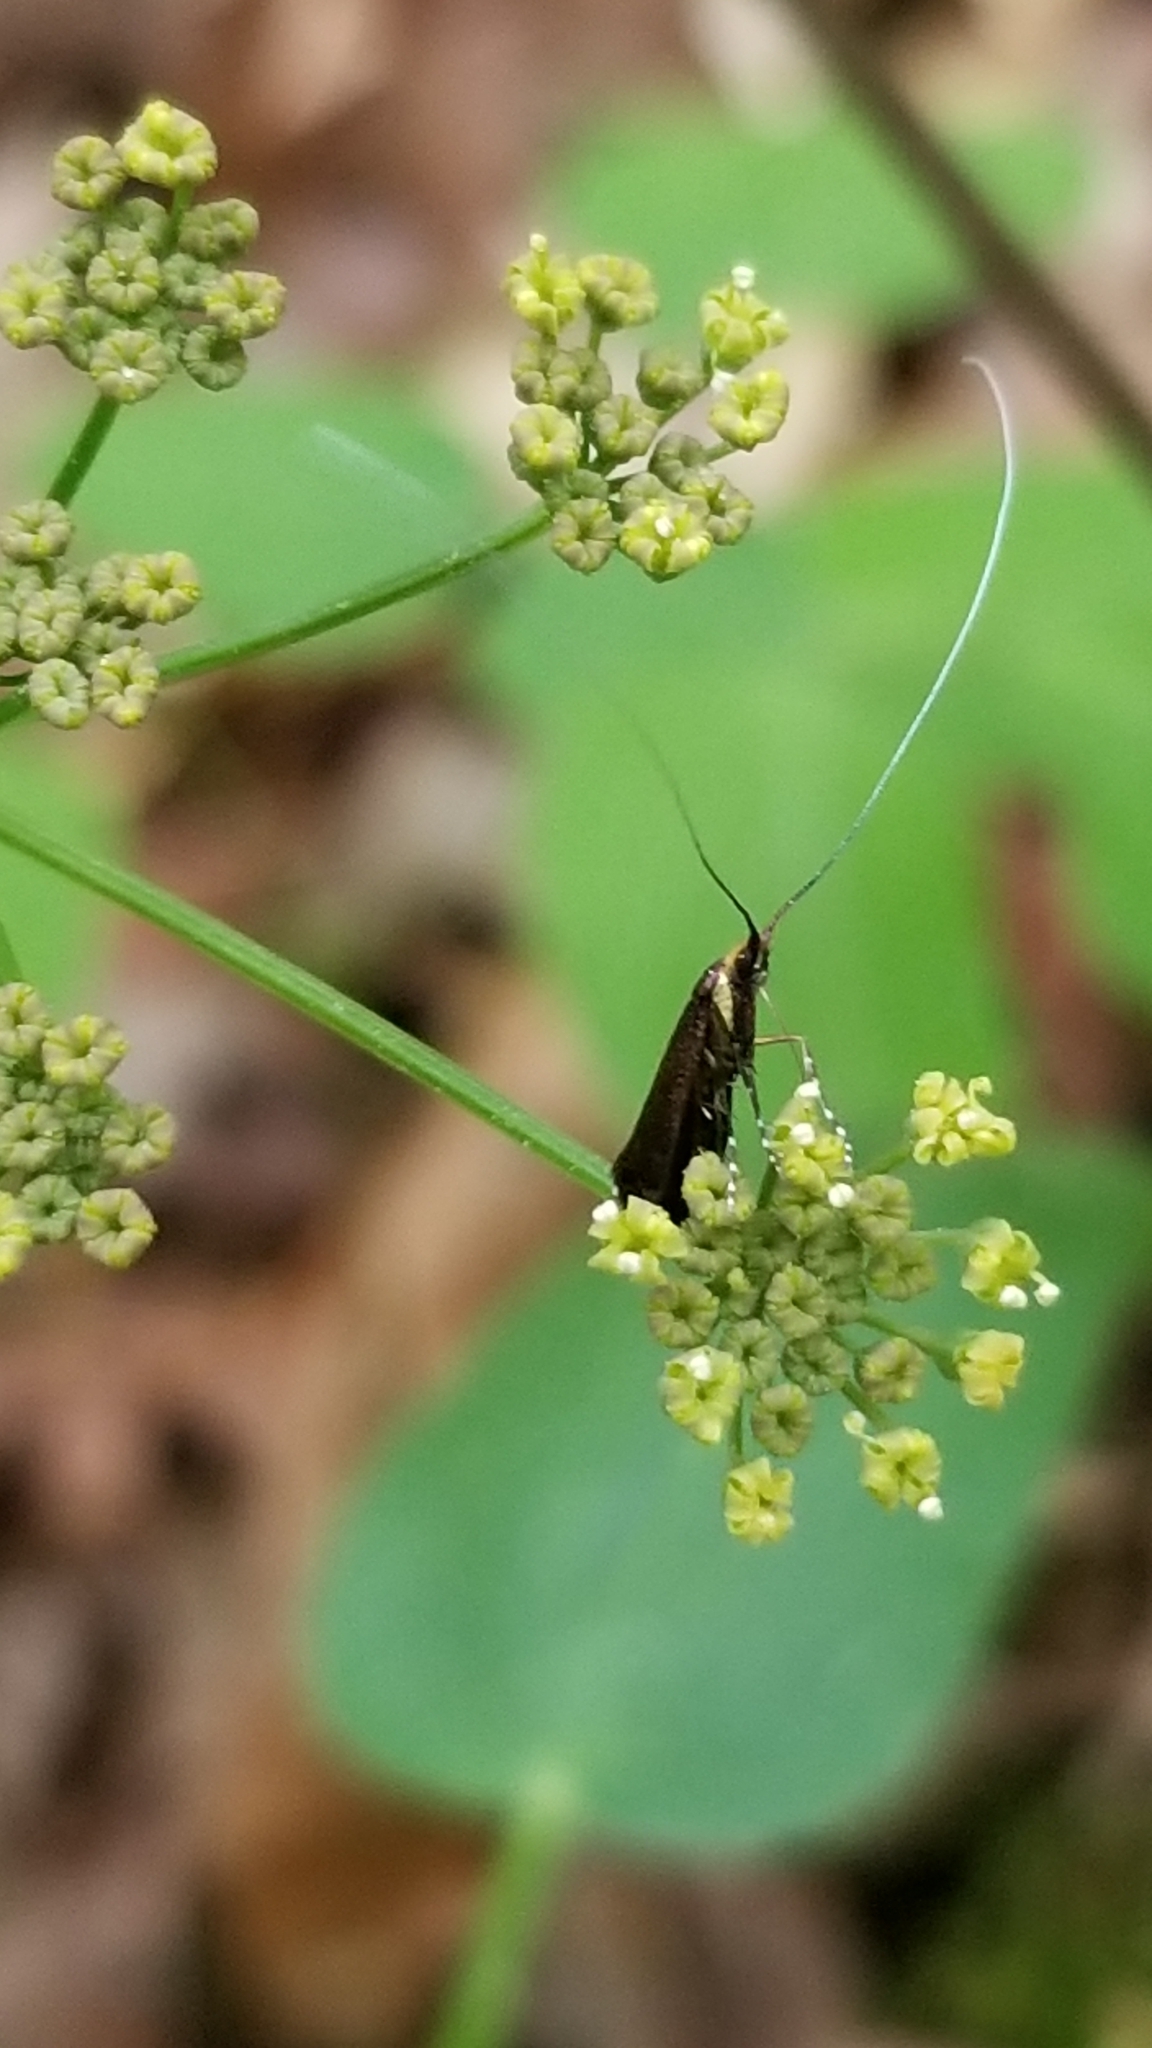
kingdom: Animalia
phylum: Arthropoda
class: Insecta
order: Lepidoptera
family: Adelidae
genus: Adela
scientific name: Adela caeruleella
